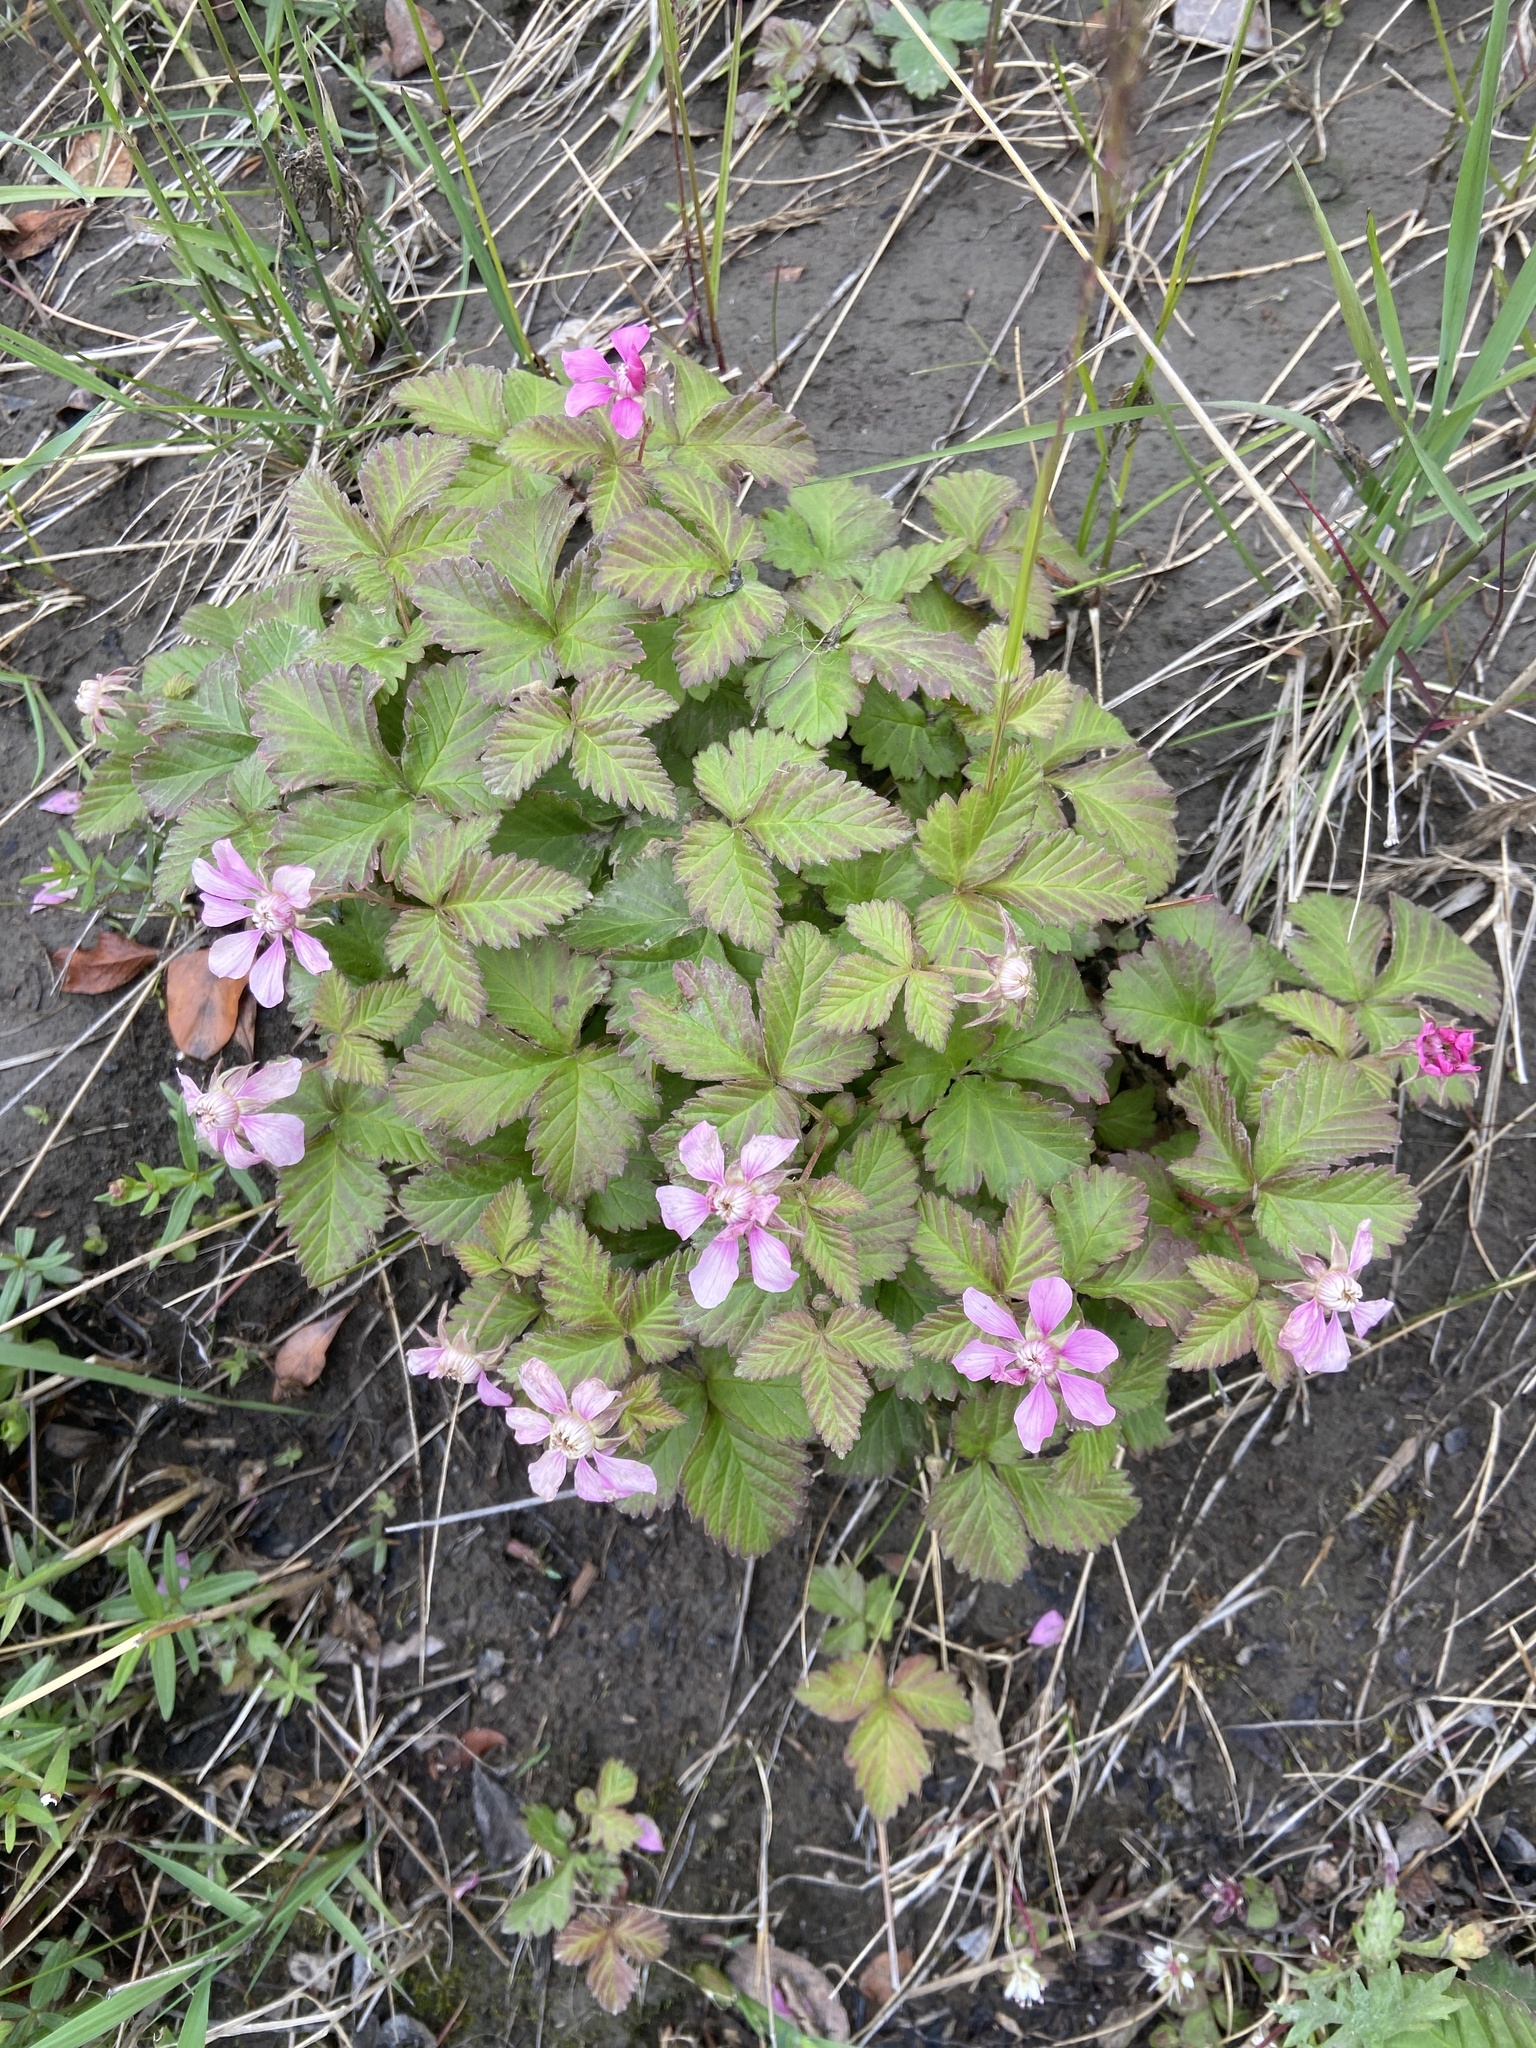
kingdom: Plantae
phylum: Tracheophyta
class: Magnoliopsida
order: Rosales
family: Rosaceae
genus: Rubus
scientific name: Rubus arcticus
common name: Arctic bramble
